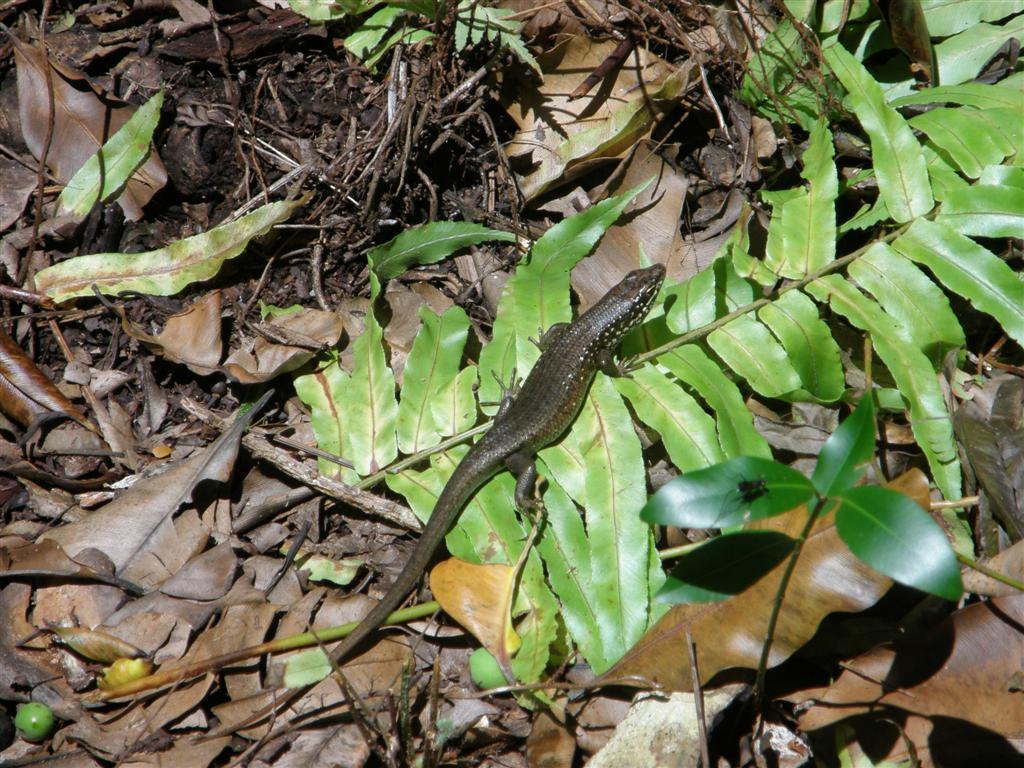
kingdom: Animalia
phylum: Chordata
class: Squamata
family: Scincidae
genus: Trachylepis
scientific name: Trachylepis maculilabris
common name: Speckle-lipped mabuya
